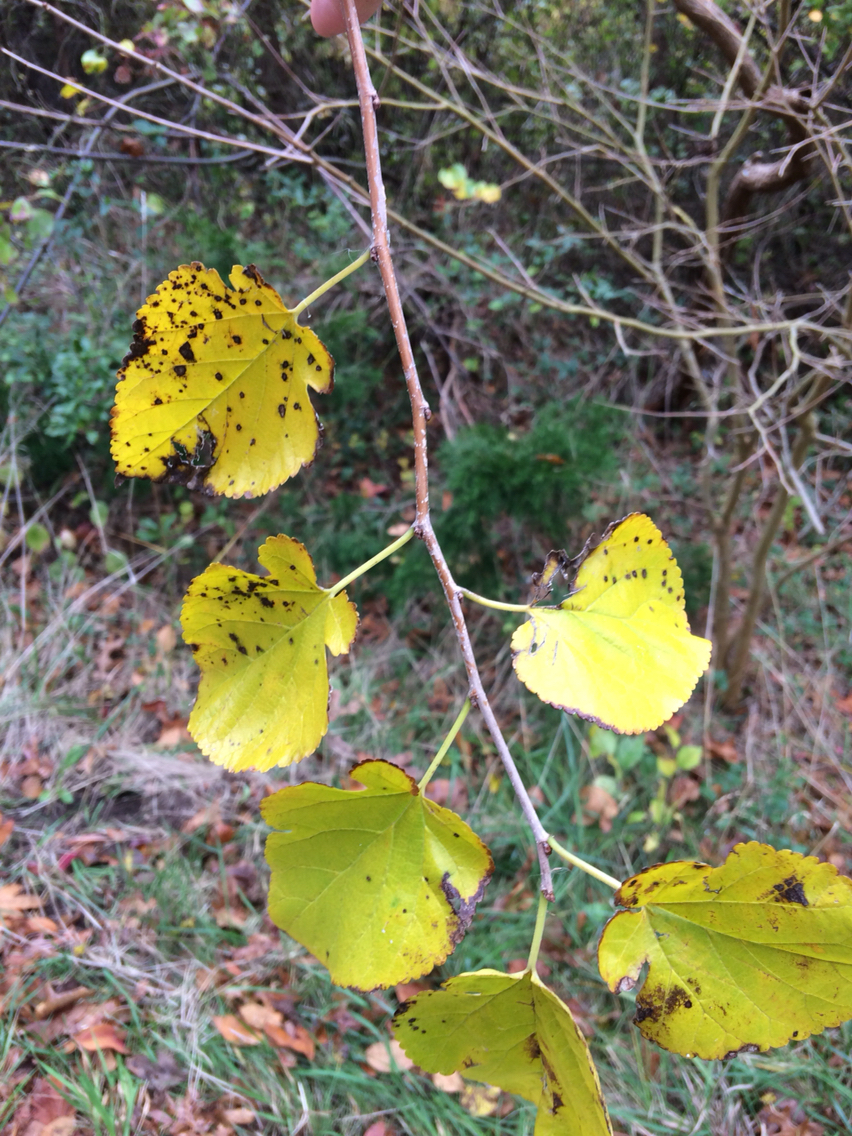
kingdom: Plantae
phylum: Tracheophyta
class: Magnoliopsida
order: Rosales
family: Moraceae
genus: Morus
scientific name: Morus alba
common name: White mulberry
